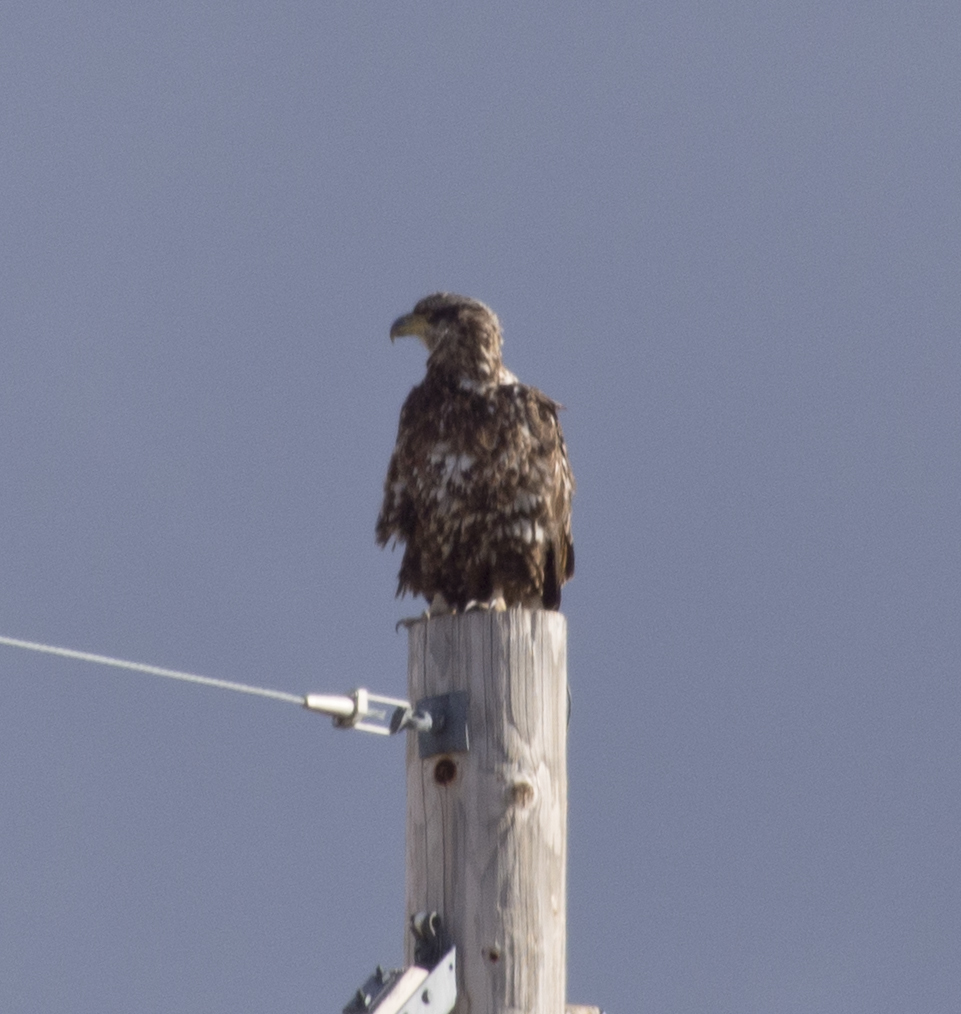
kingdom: Animalia
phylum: Chordata
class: Aves
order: Accipitriformes
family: Accipitridae
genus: Haliaeetus
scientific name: Haliaeetus leucocephalus
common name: Bald eagle
